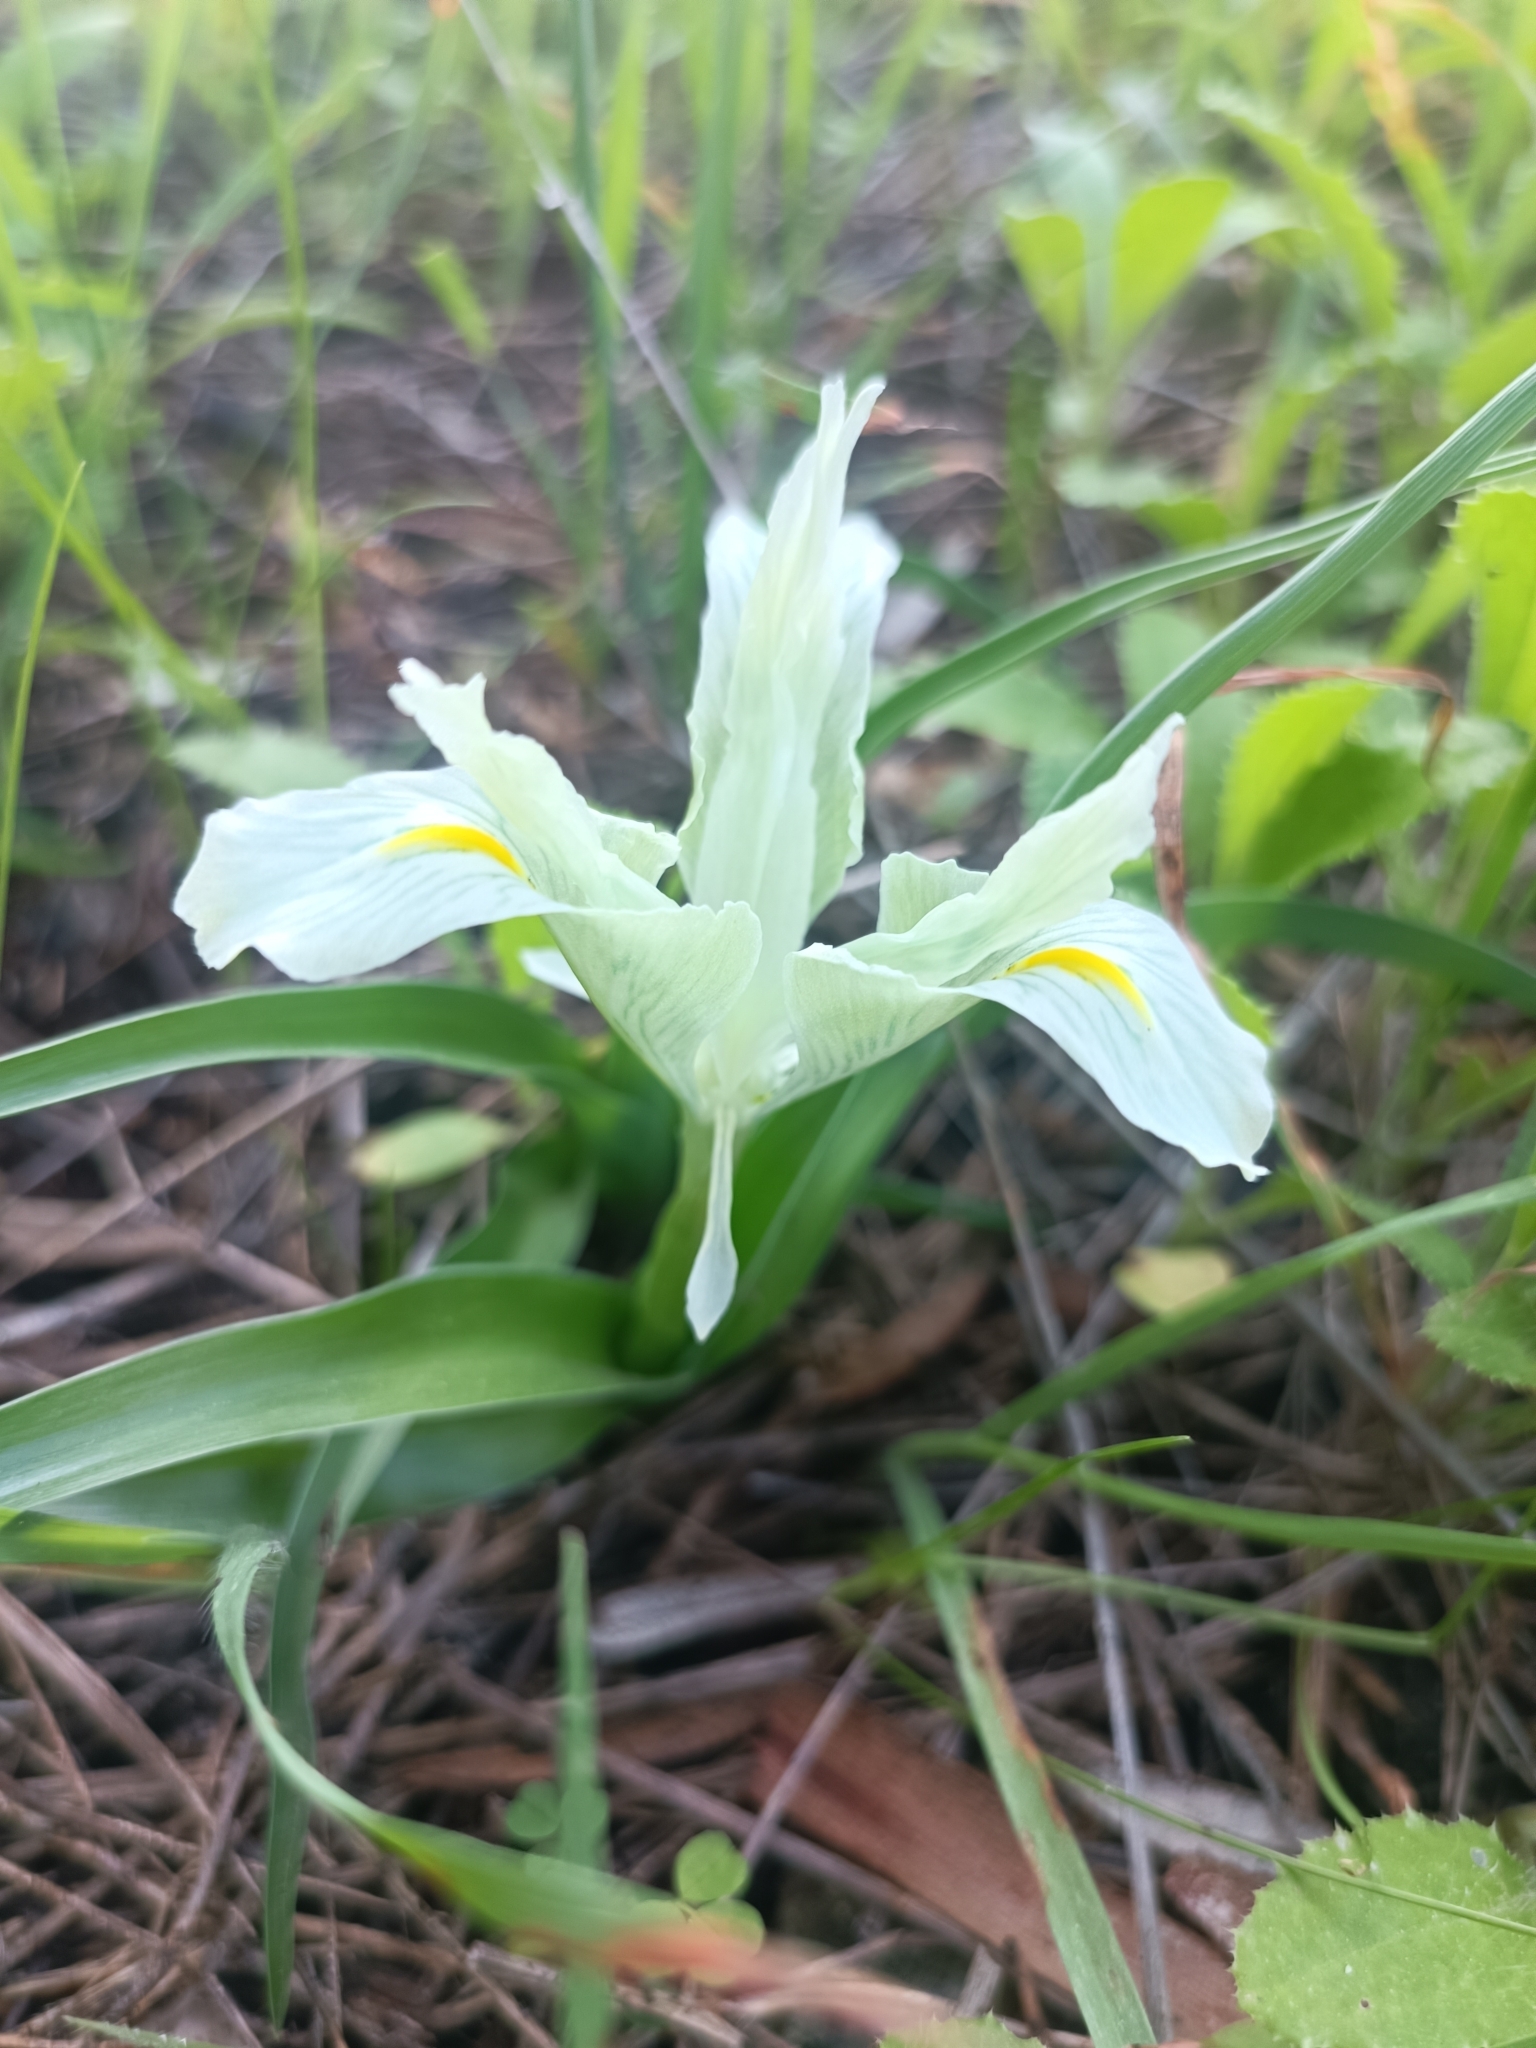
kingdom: Plantae
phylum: Tracheophyta
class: Liliopsida
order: Asparagales
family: Iridaceae
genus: Iris
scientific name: Iris palaestina
